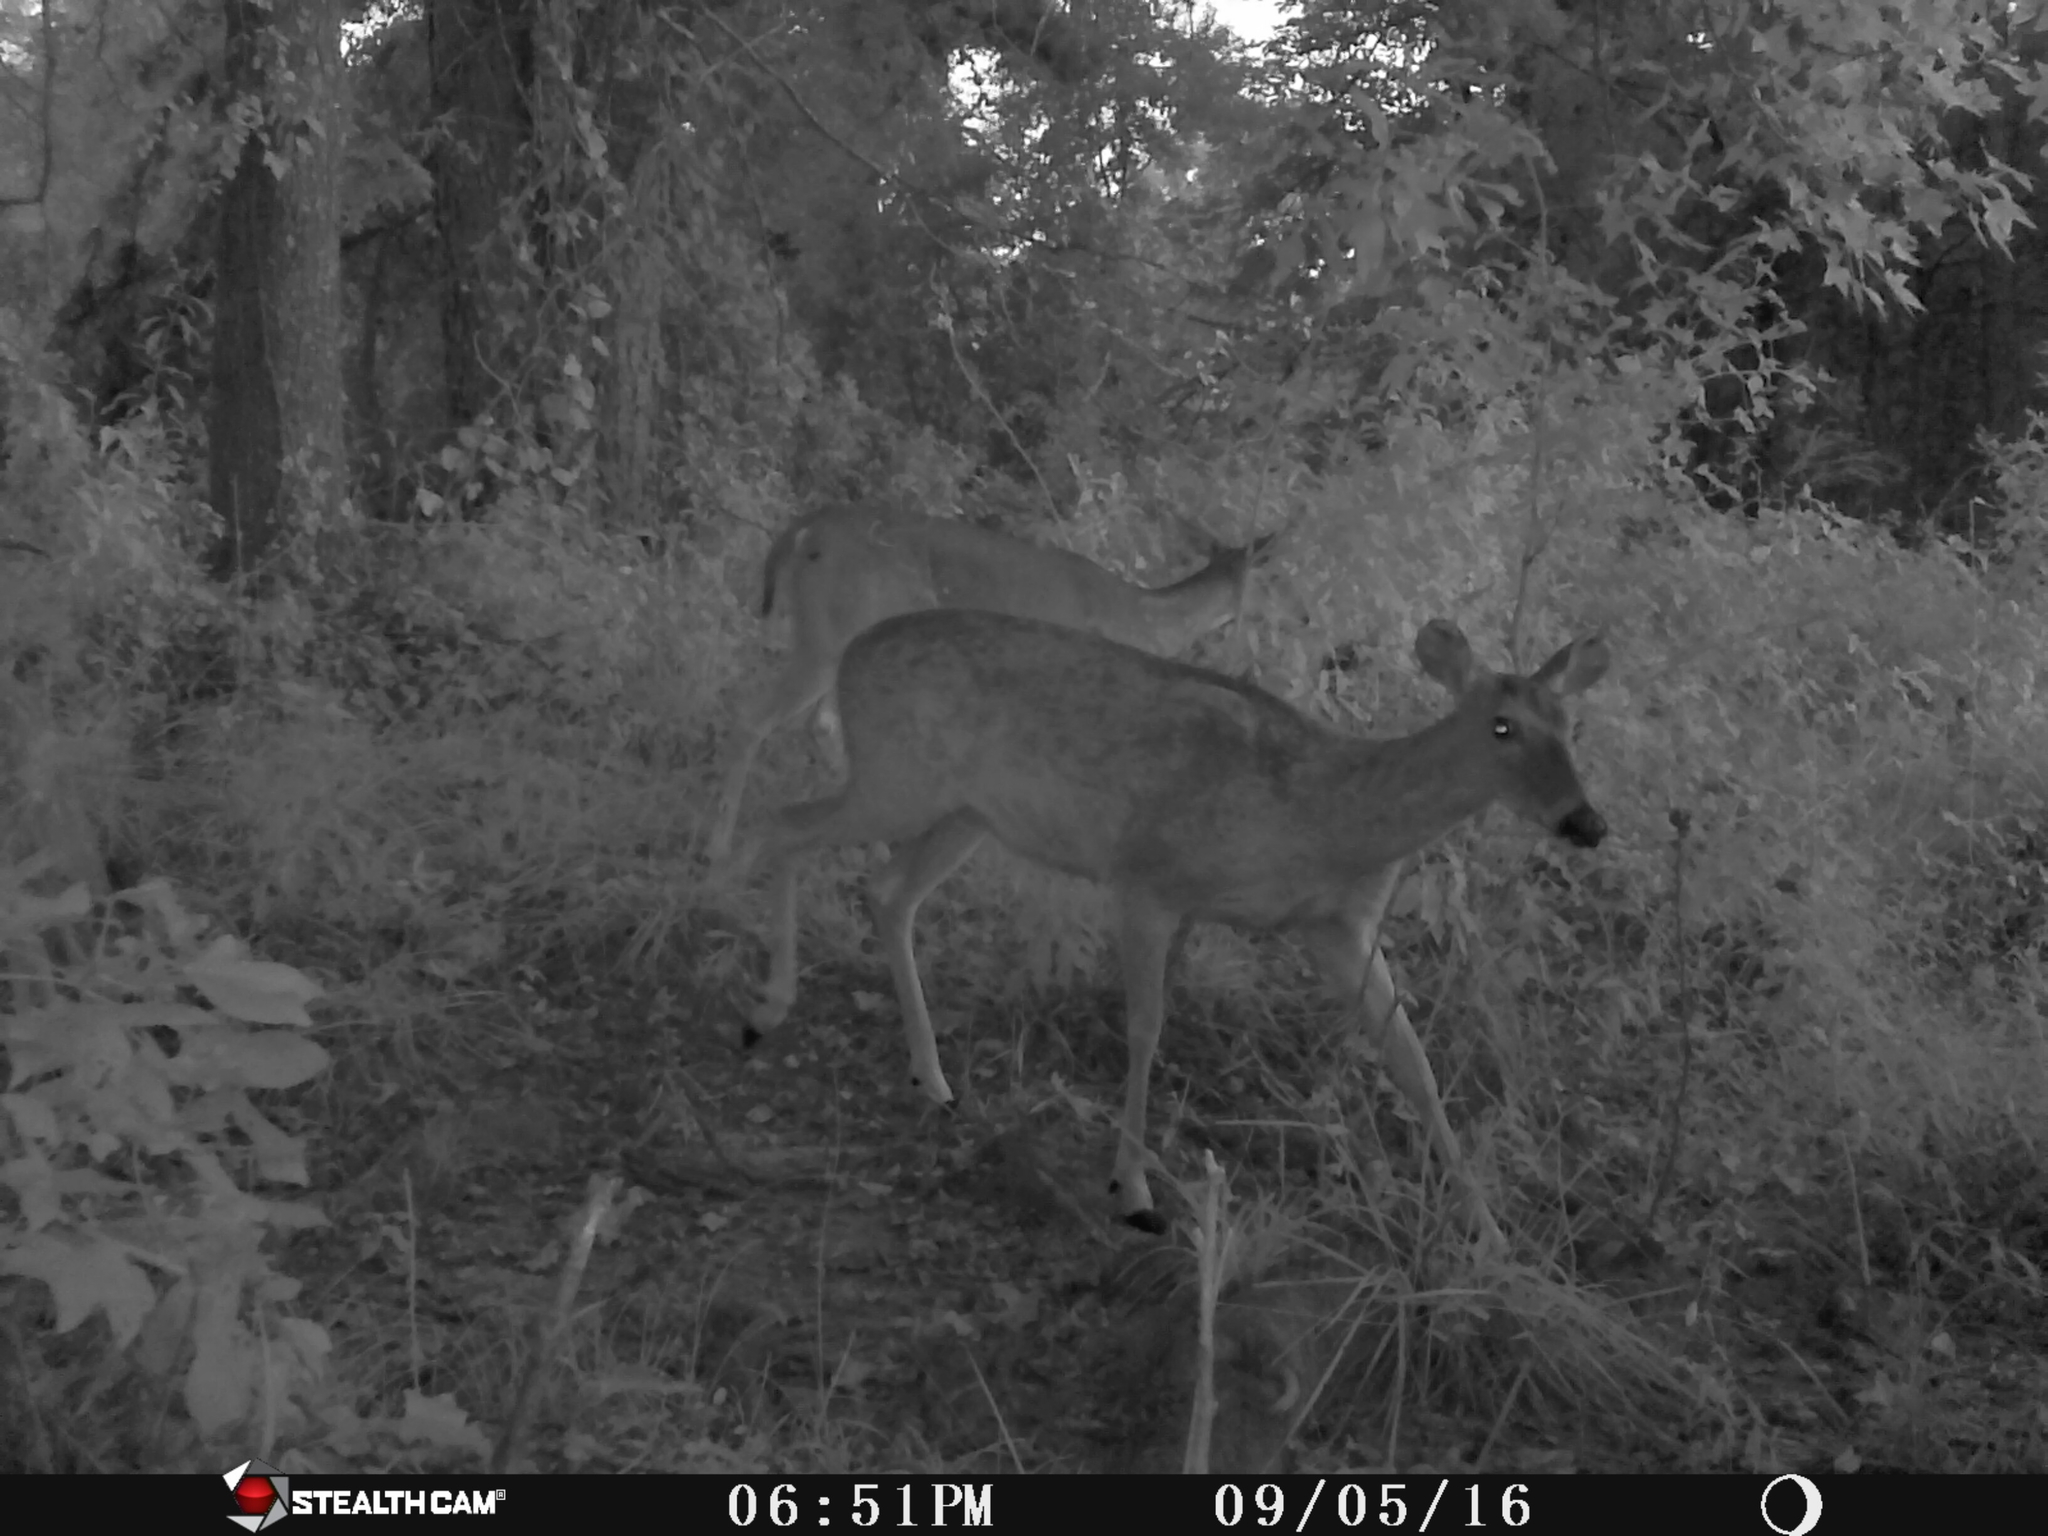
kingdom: Animalia
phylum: Chordata
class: Mammalia
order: Artiodactyla
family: Cervidae
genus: Odocoileus
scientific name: Odocoileus virginianus
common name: White-tailed deer
